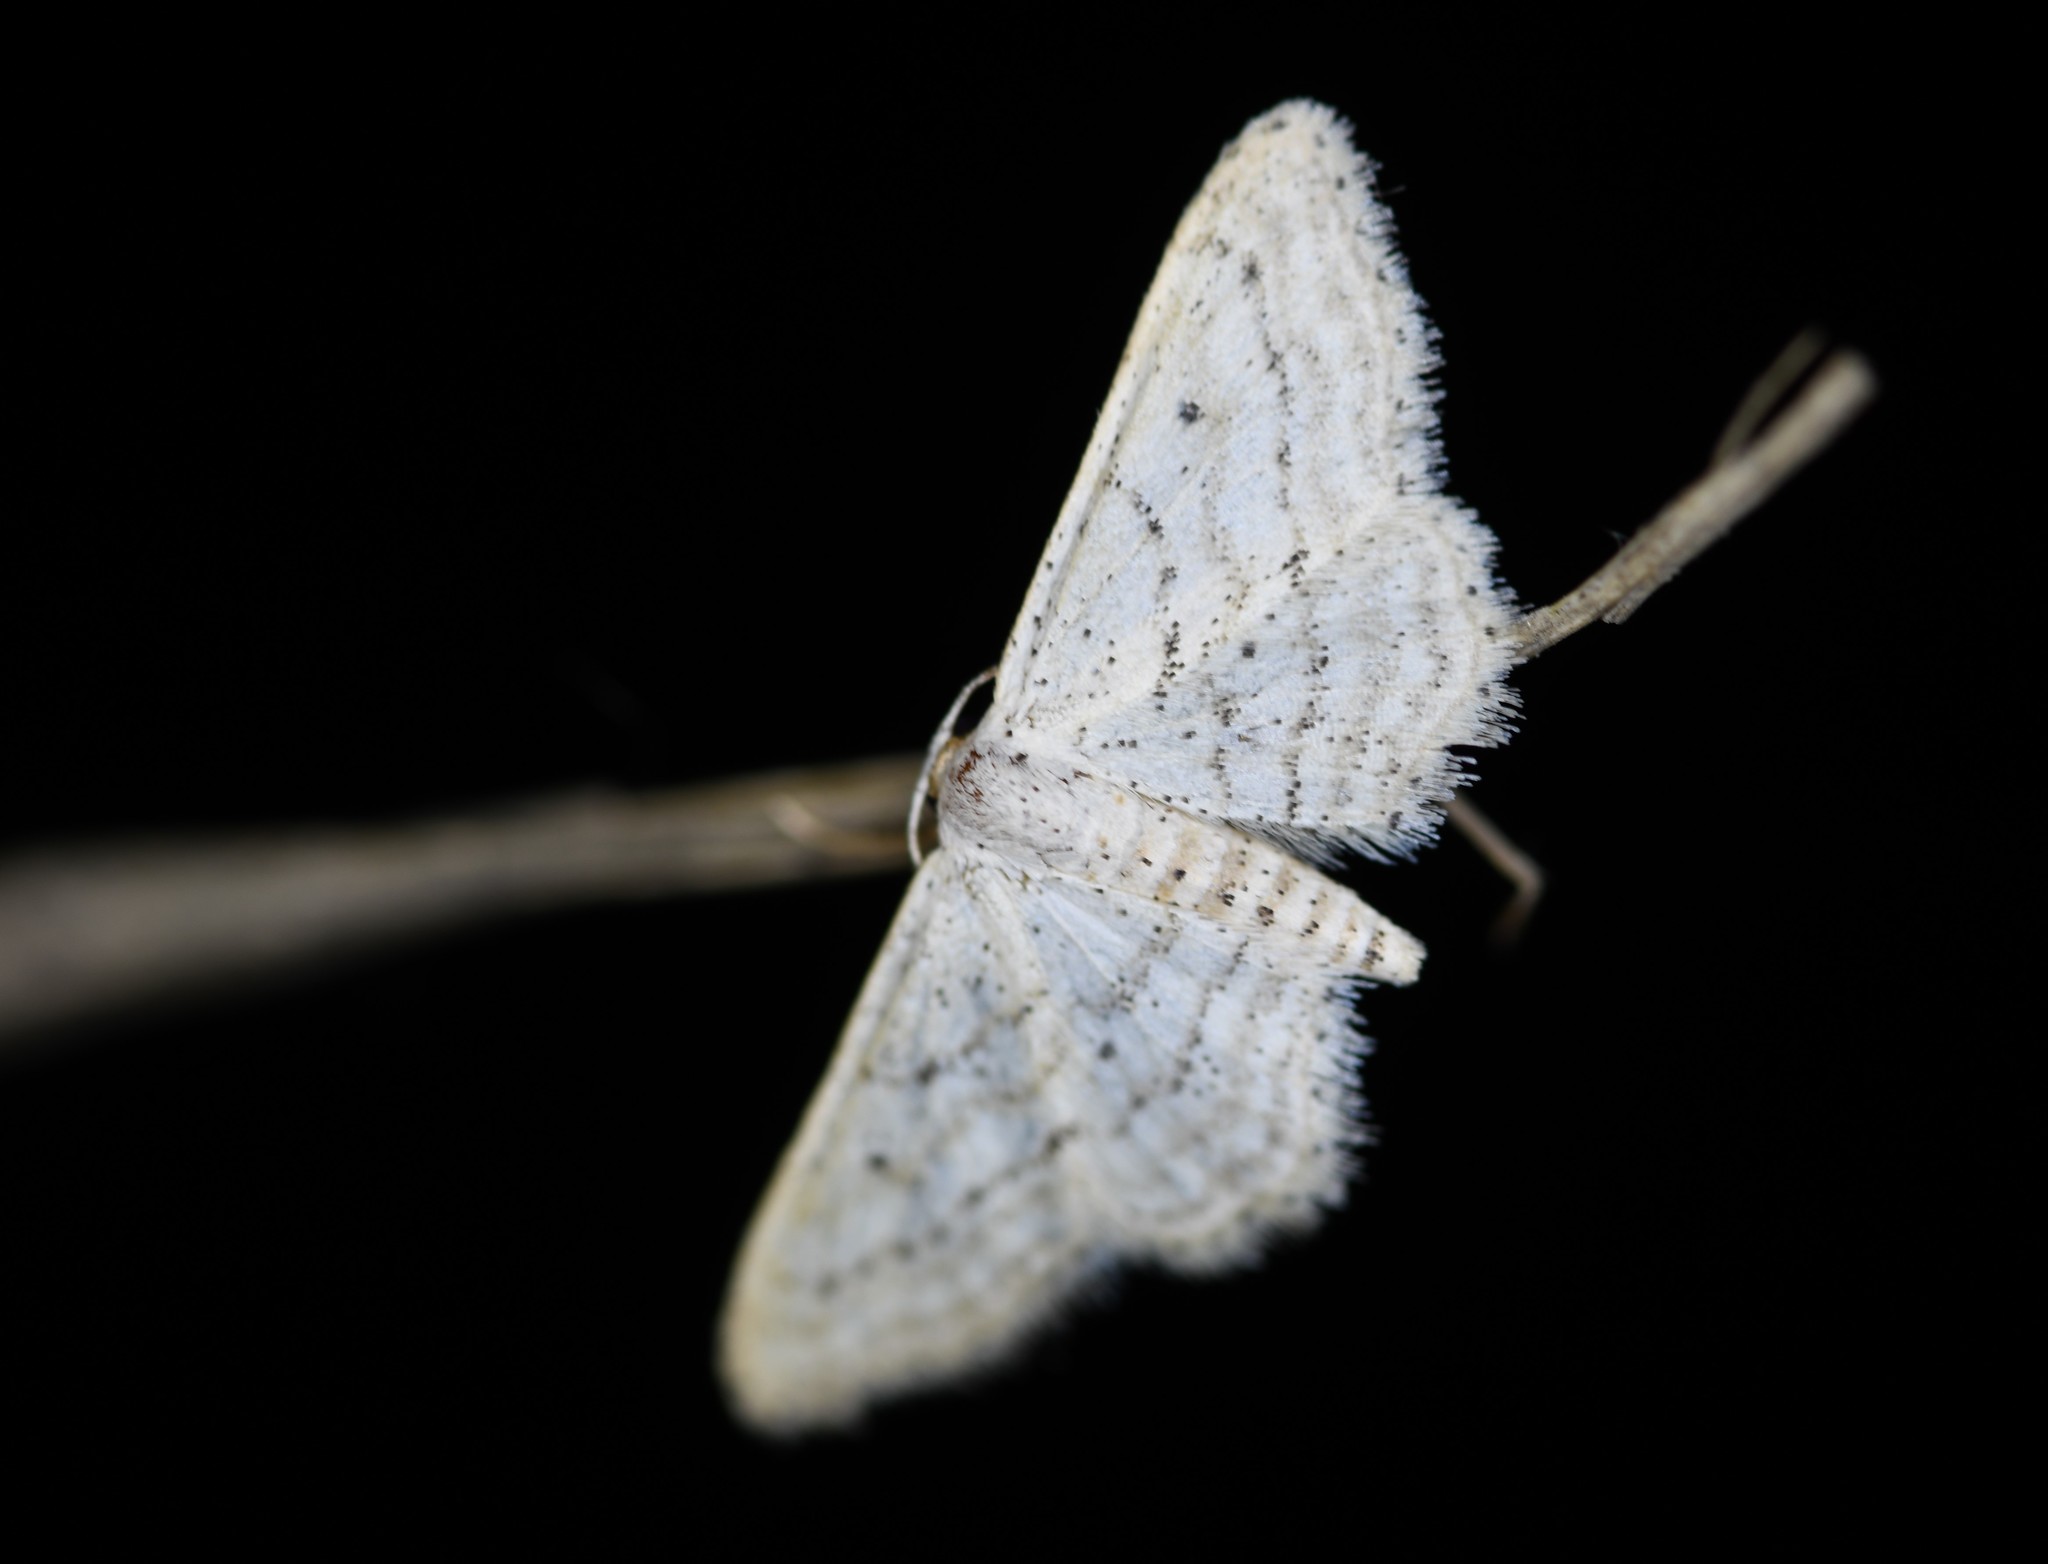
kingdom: Animalia
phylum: Arthropoda
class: Insecta
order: Lepidoptera
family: Geometridae
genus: Idaea
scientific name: Idaea elongaria
